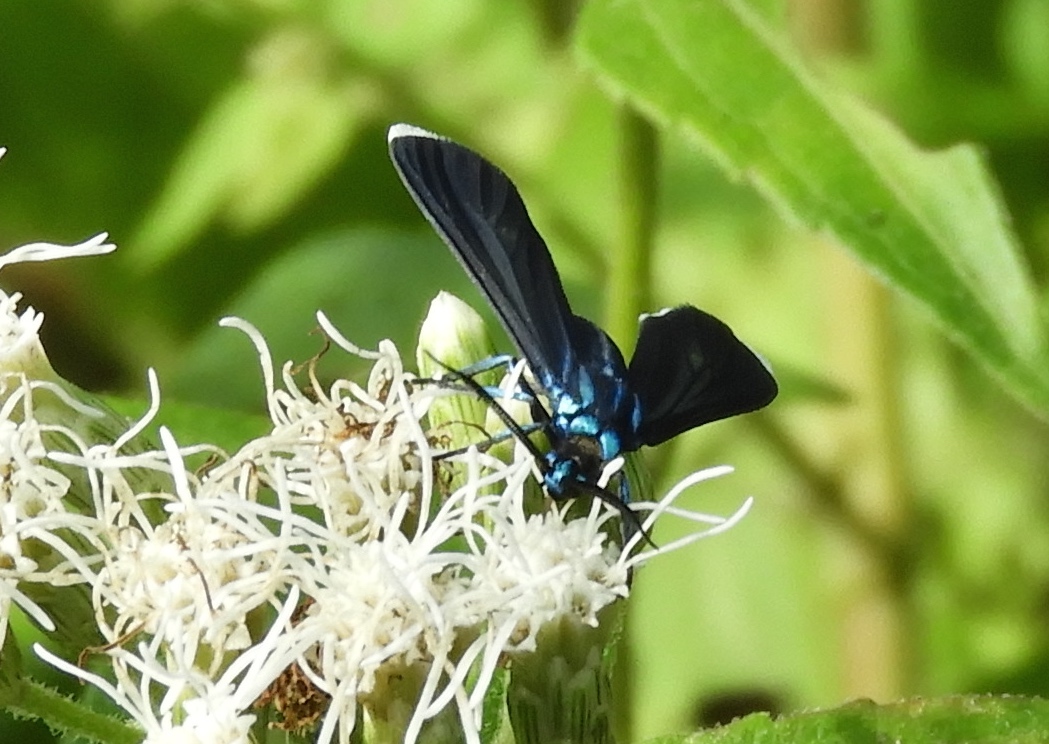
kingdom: Animalia
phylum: Arthropoda
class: Insecta
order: Lepidoptera
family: Erebidae
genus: Uranophora
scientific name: Uranophora leucotela
